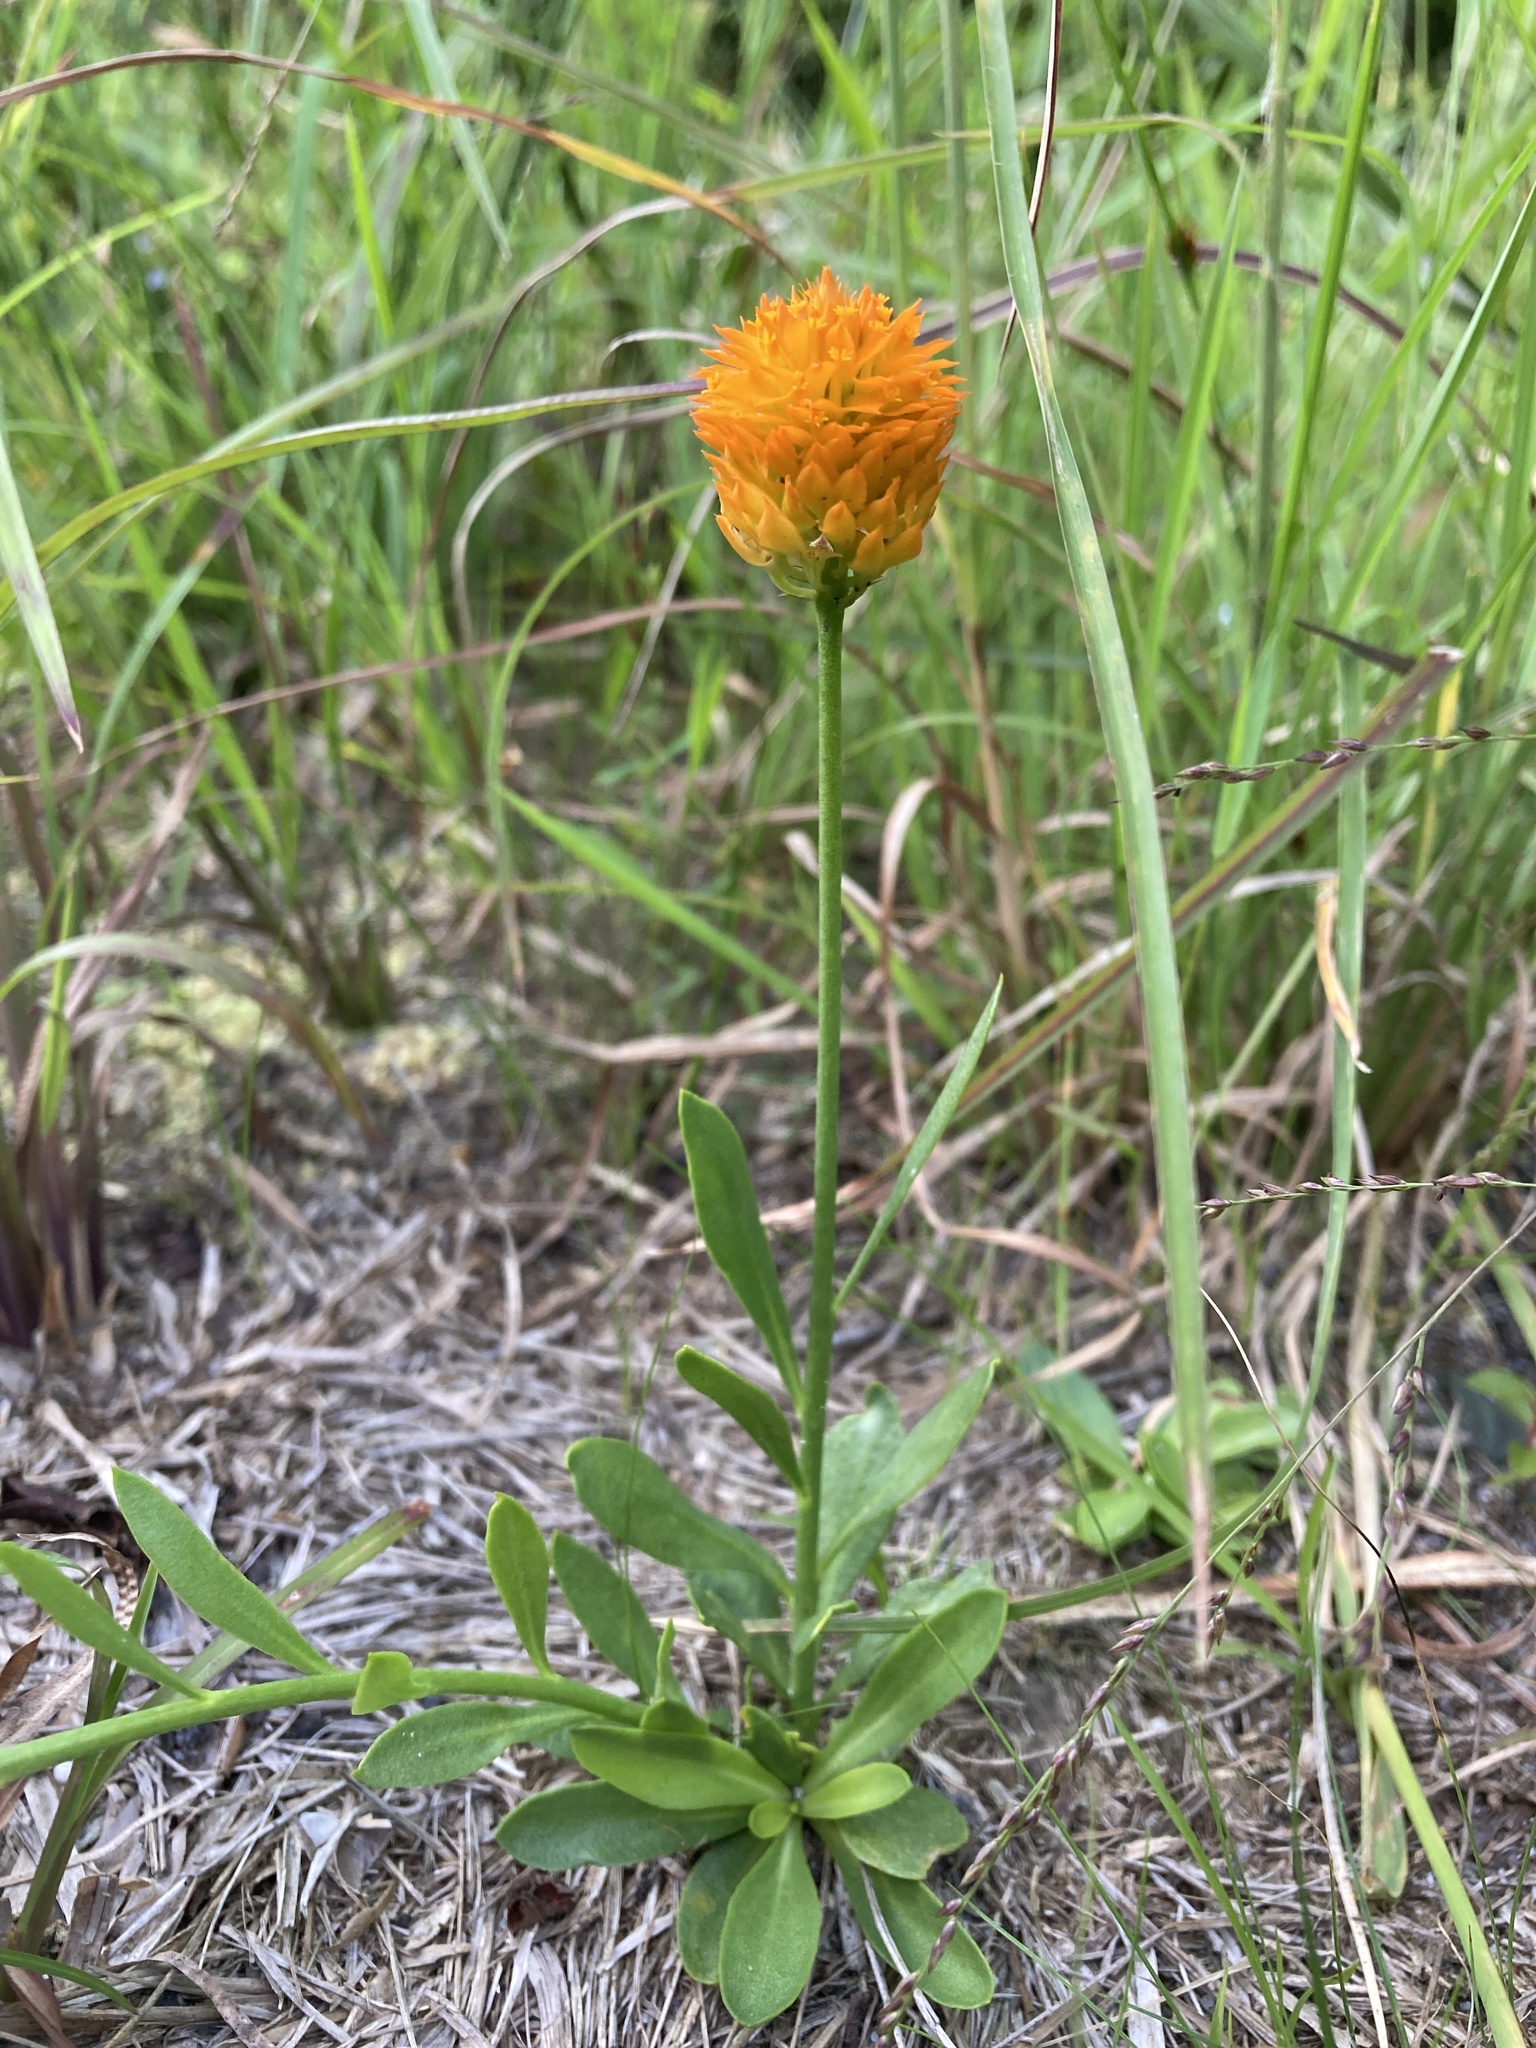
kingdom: Plantae
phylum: Tracheophyta
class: Magnoliopsida
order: Fabales
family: Polygalaceae
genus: Polygala
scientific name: Polygala lutea
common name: Orange milkwort
